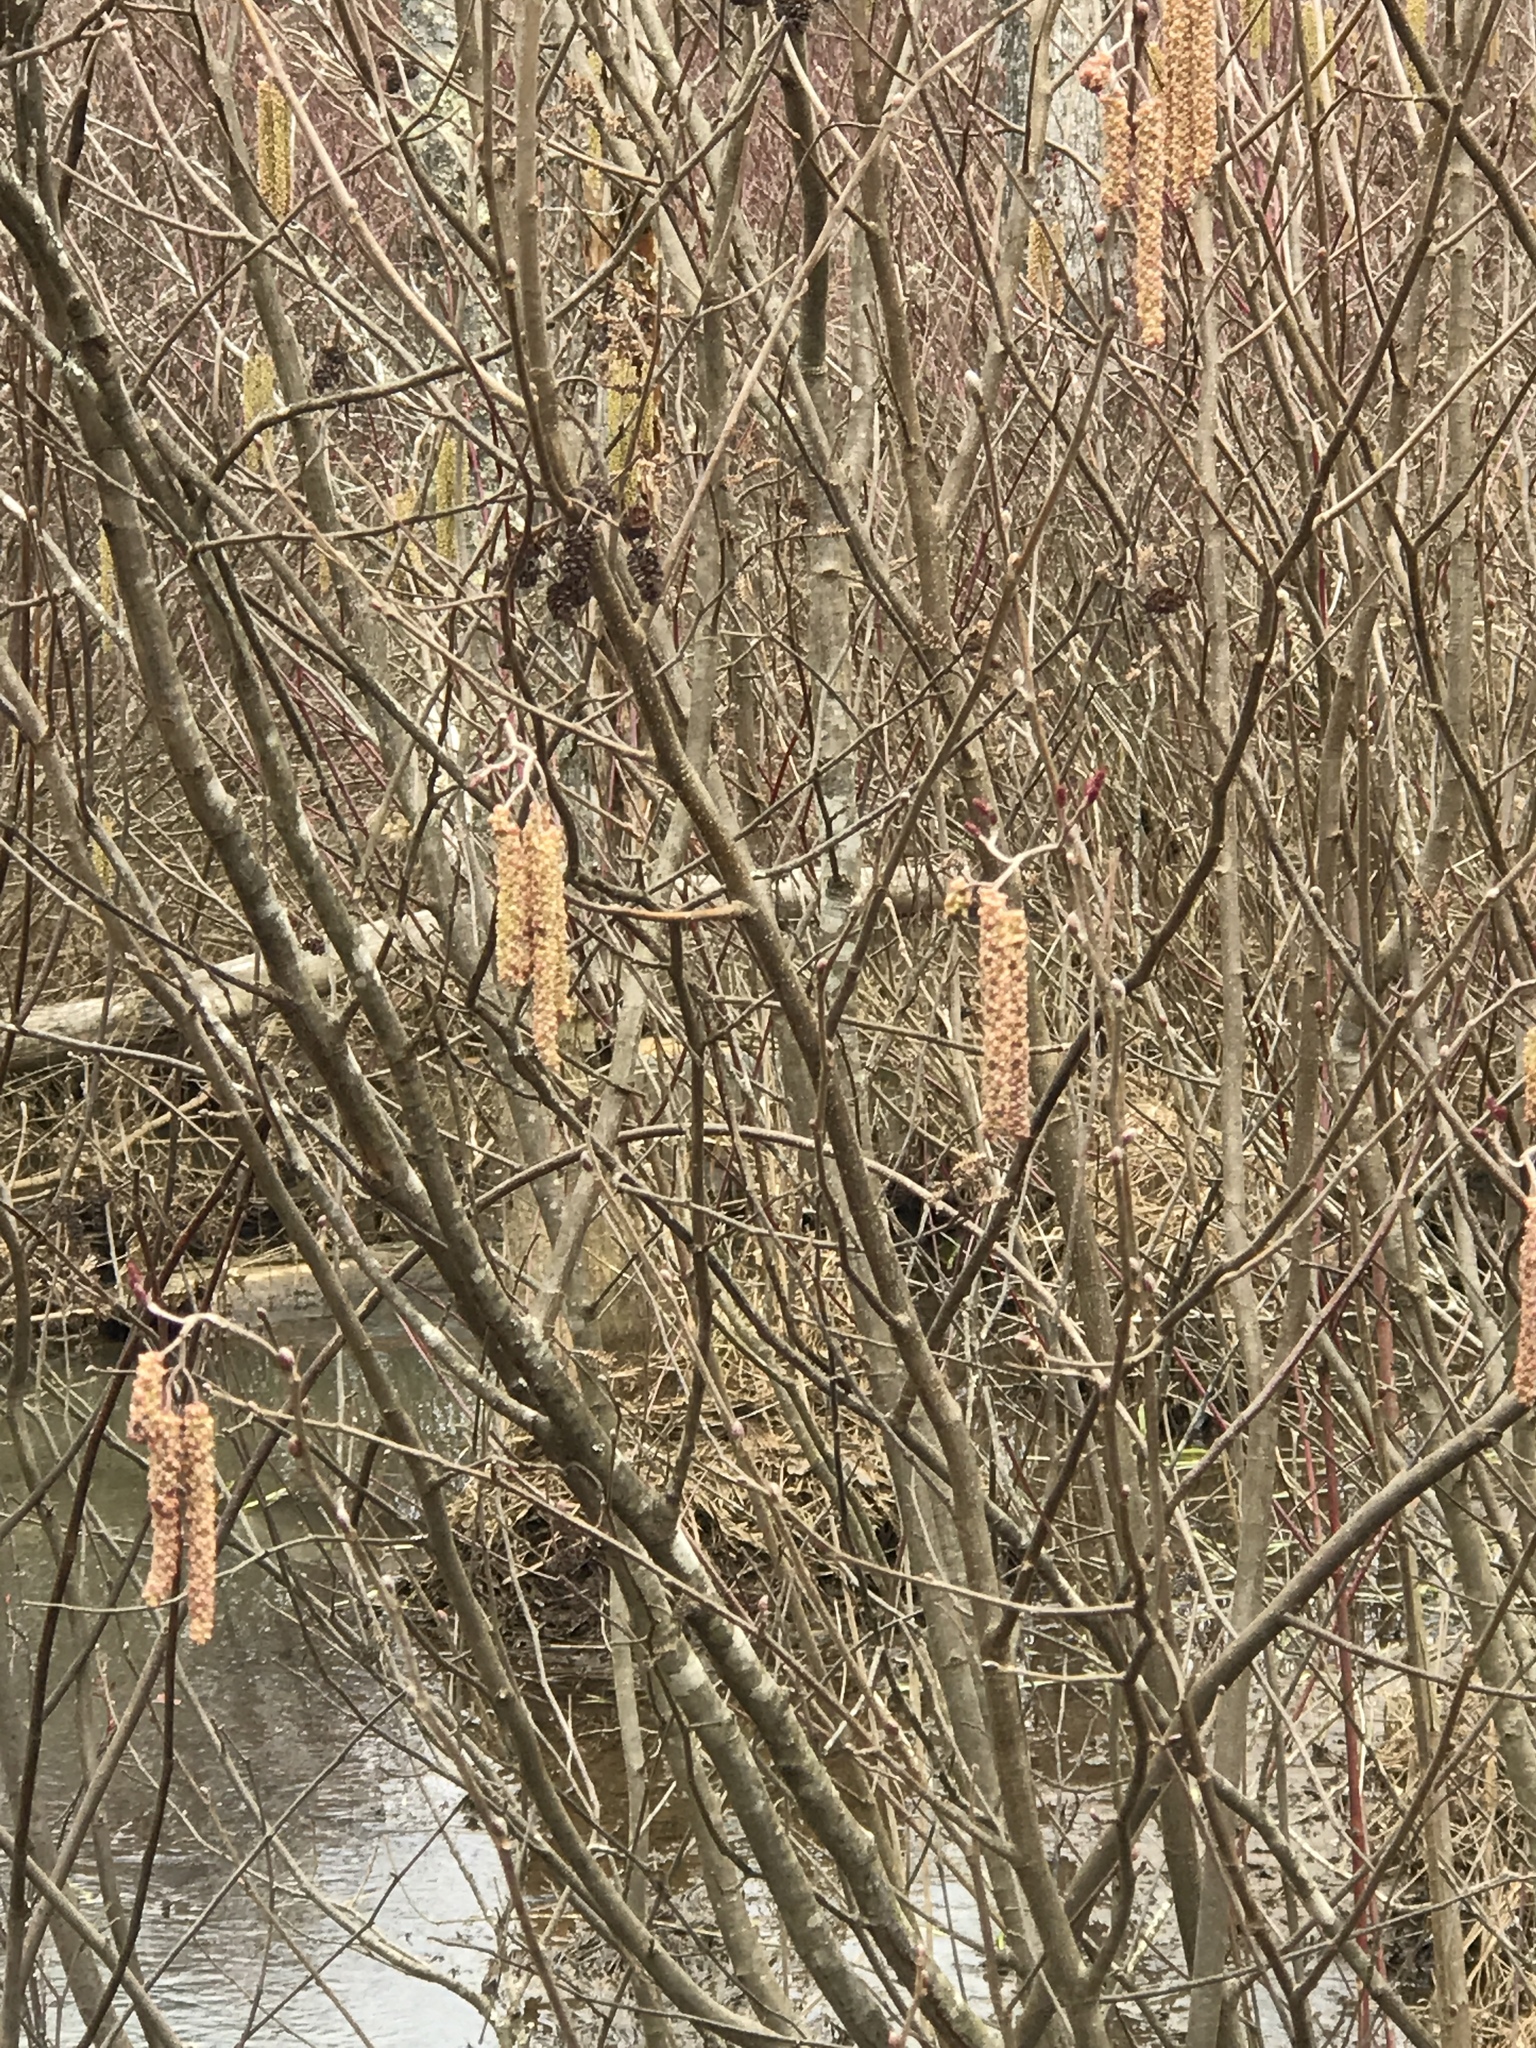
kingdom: Plantae
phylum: Tracheophyta
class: Magnoliopsida
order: Fagales
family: Betulaceae
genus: Alnus
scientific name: Alnus serrulata
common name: Hazel alder
